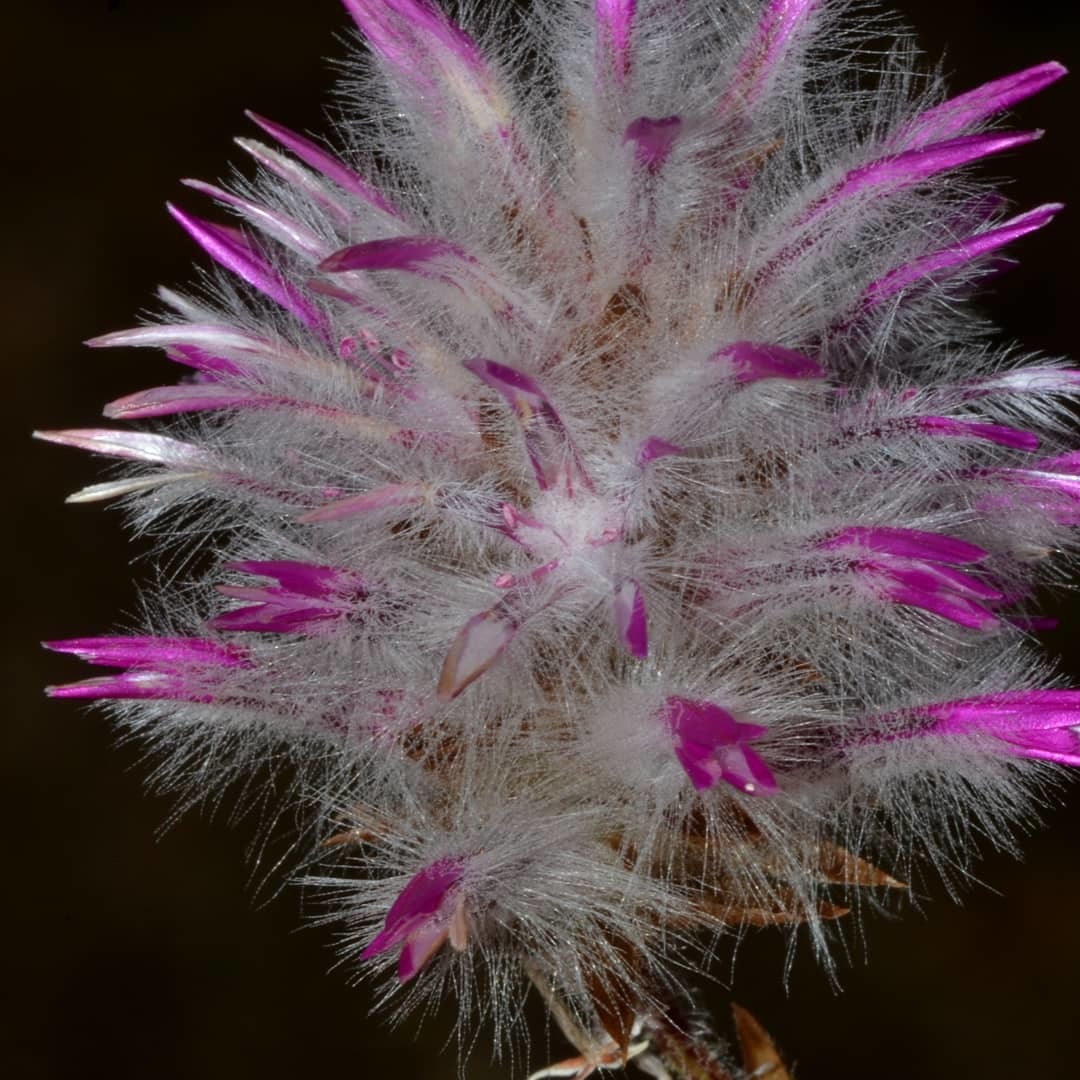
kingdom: Plantae
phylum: Tracheophyta
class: Magnoliopsida
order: Caryophyllales
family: Amaranthaceae
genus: Ptilotus
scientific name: Ptilotus manglesii
